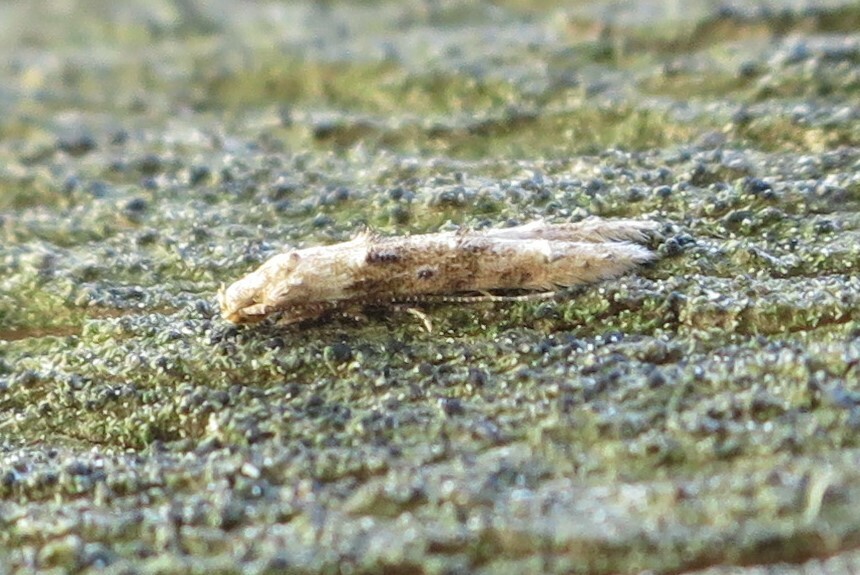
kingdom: Animalia
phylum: Arthropoda
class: Insecta
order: Lepidoptera
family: Elachistidae
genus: Microcolona
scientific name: Microcolona limodes
